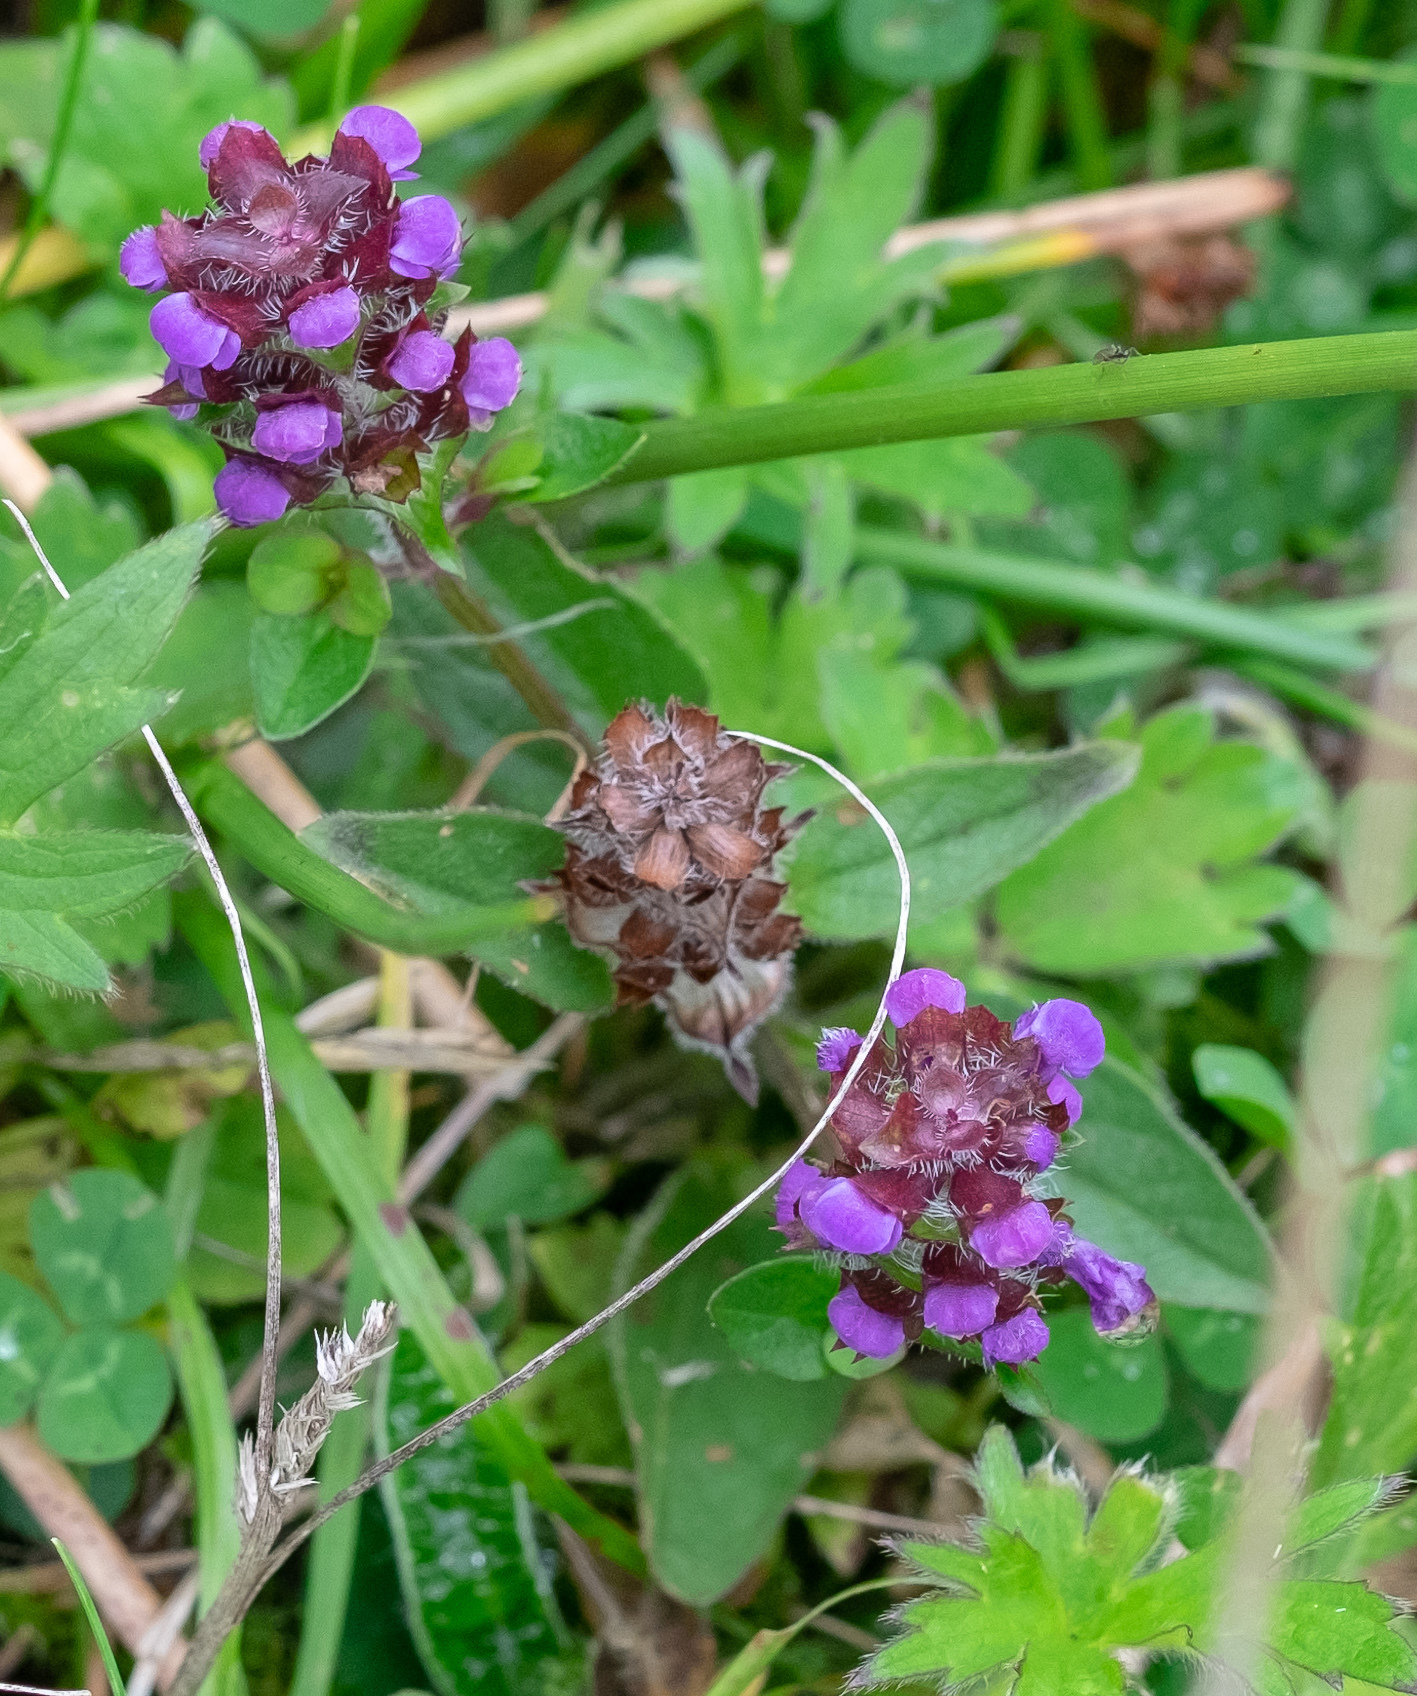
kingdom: Plantae
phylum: Tracheophyta
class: Magnoliopsida
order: Lamiales
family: Lamiaceae
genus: Prunella
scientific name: Prunella vulgaris
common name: Heal-all
